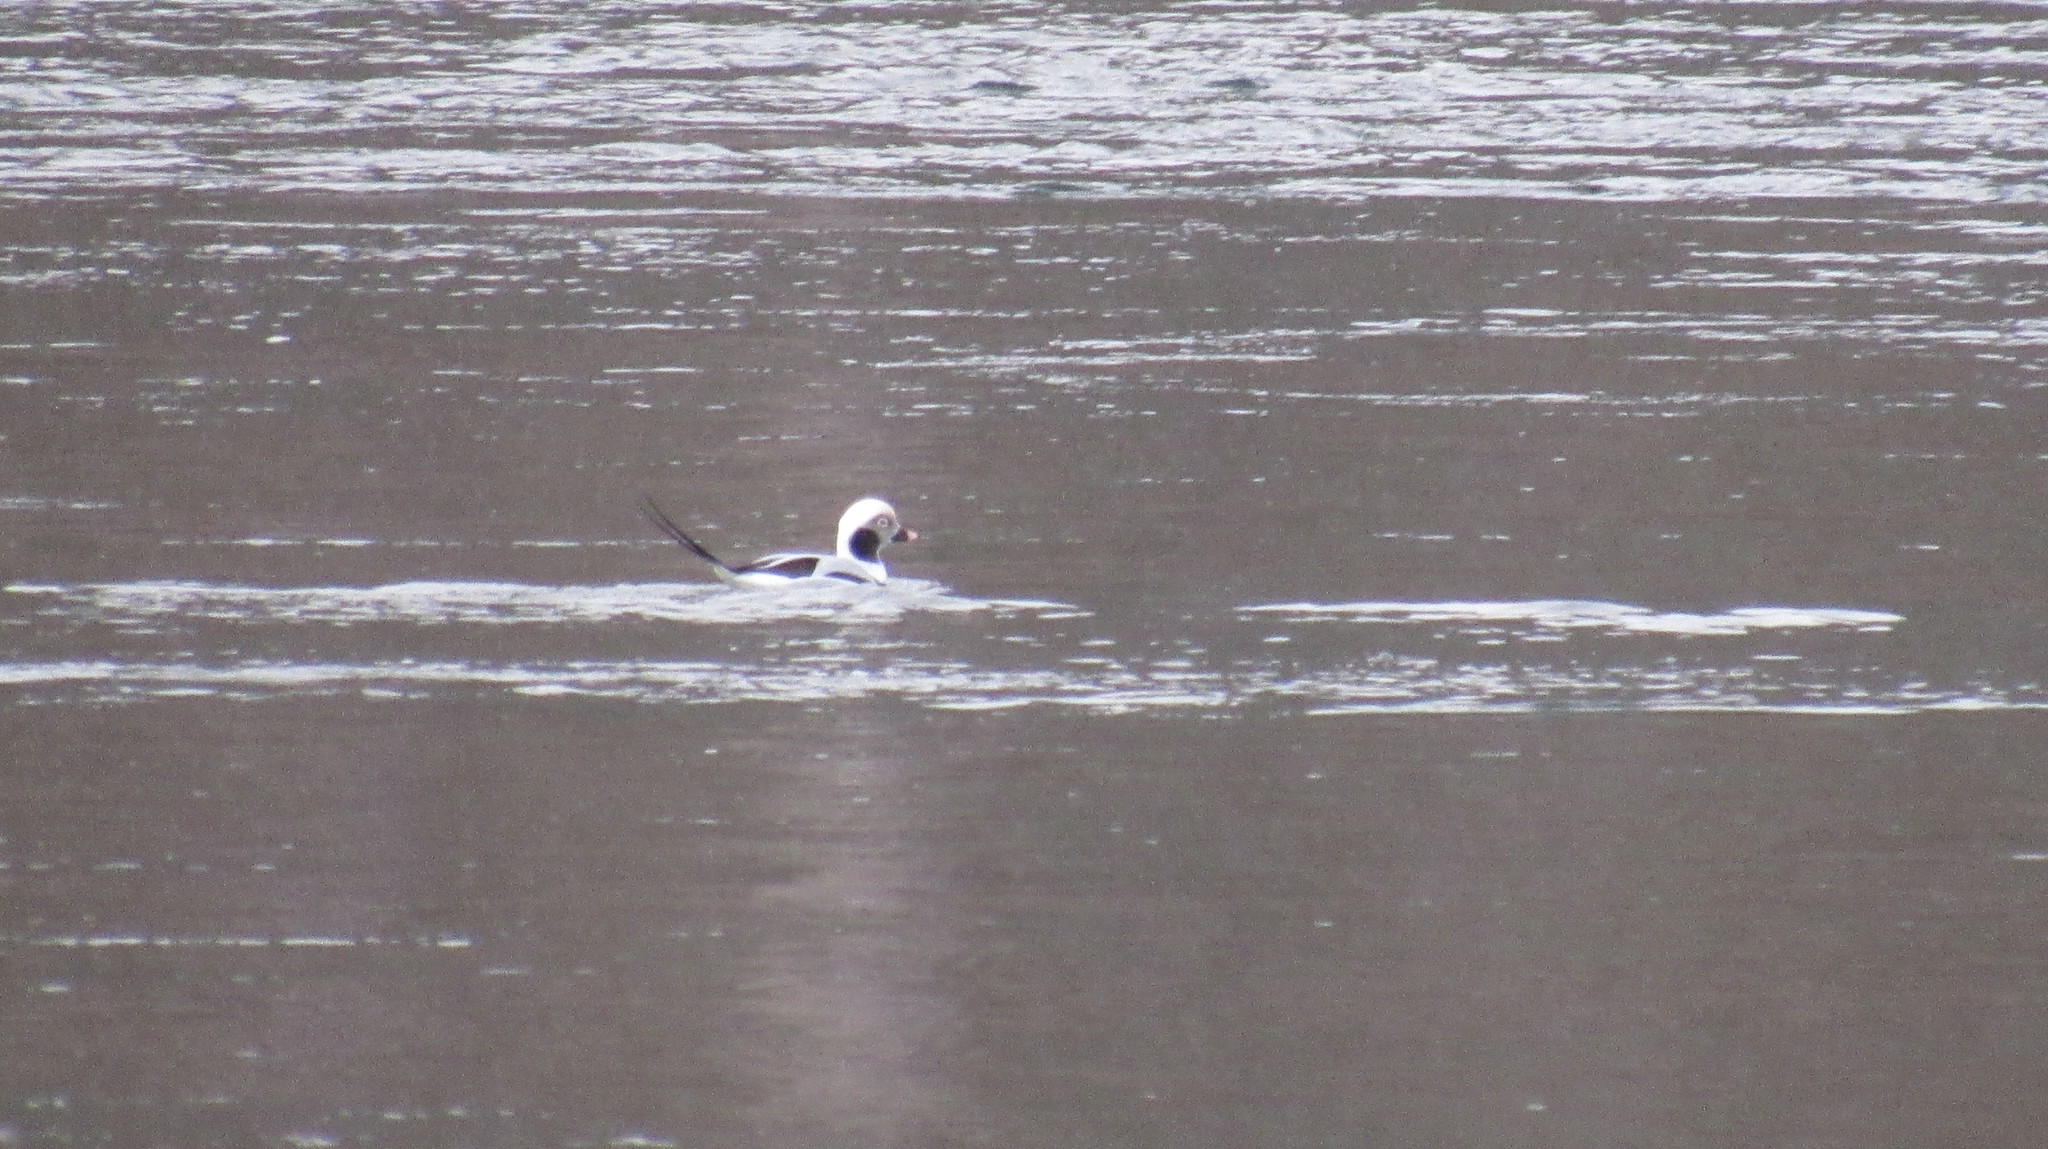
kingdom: Animalia
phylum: Chordata
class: Aves
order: Anseriformes
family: Anatidae
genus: Clangula
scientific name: Clangula hyemalis
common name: Long-tailed duck
